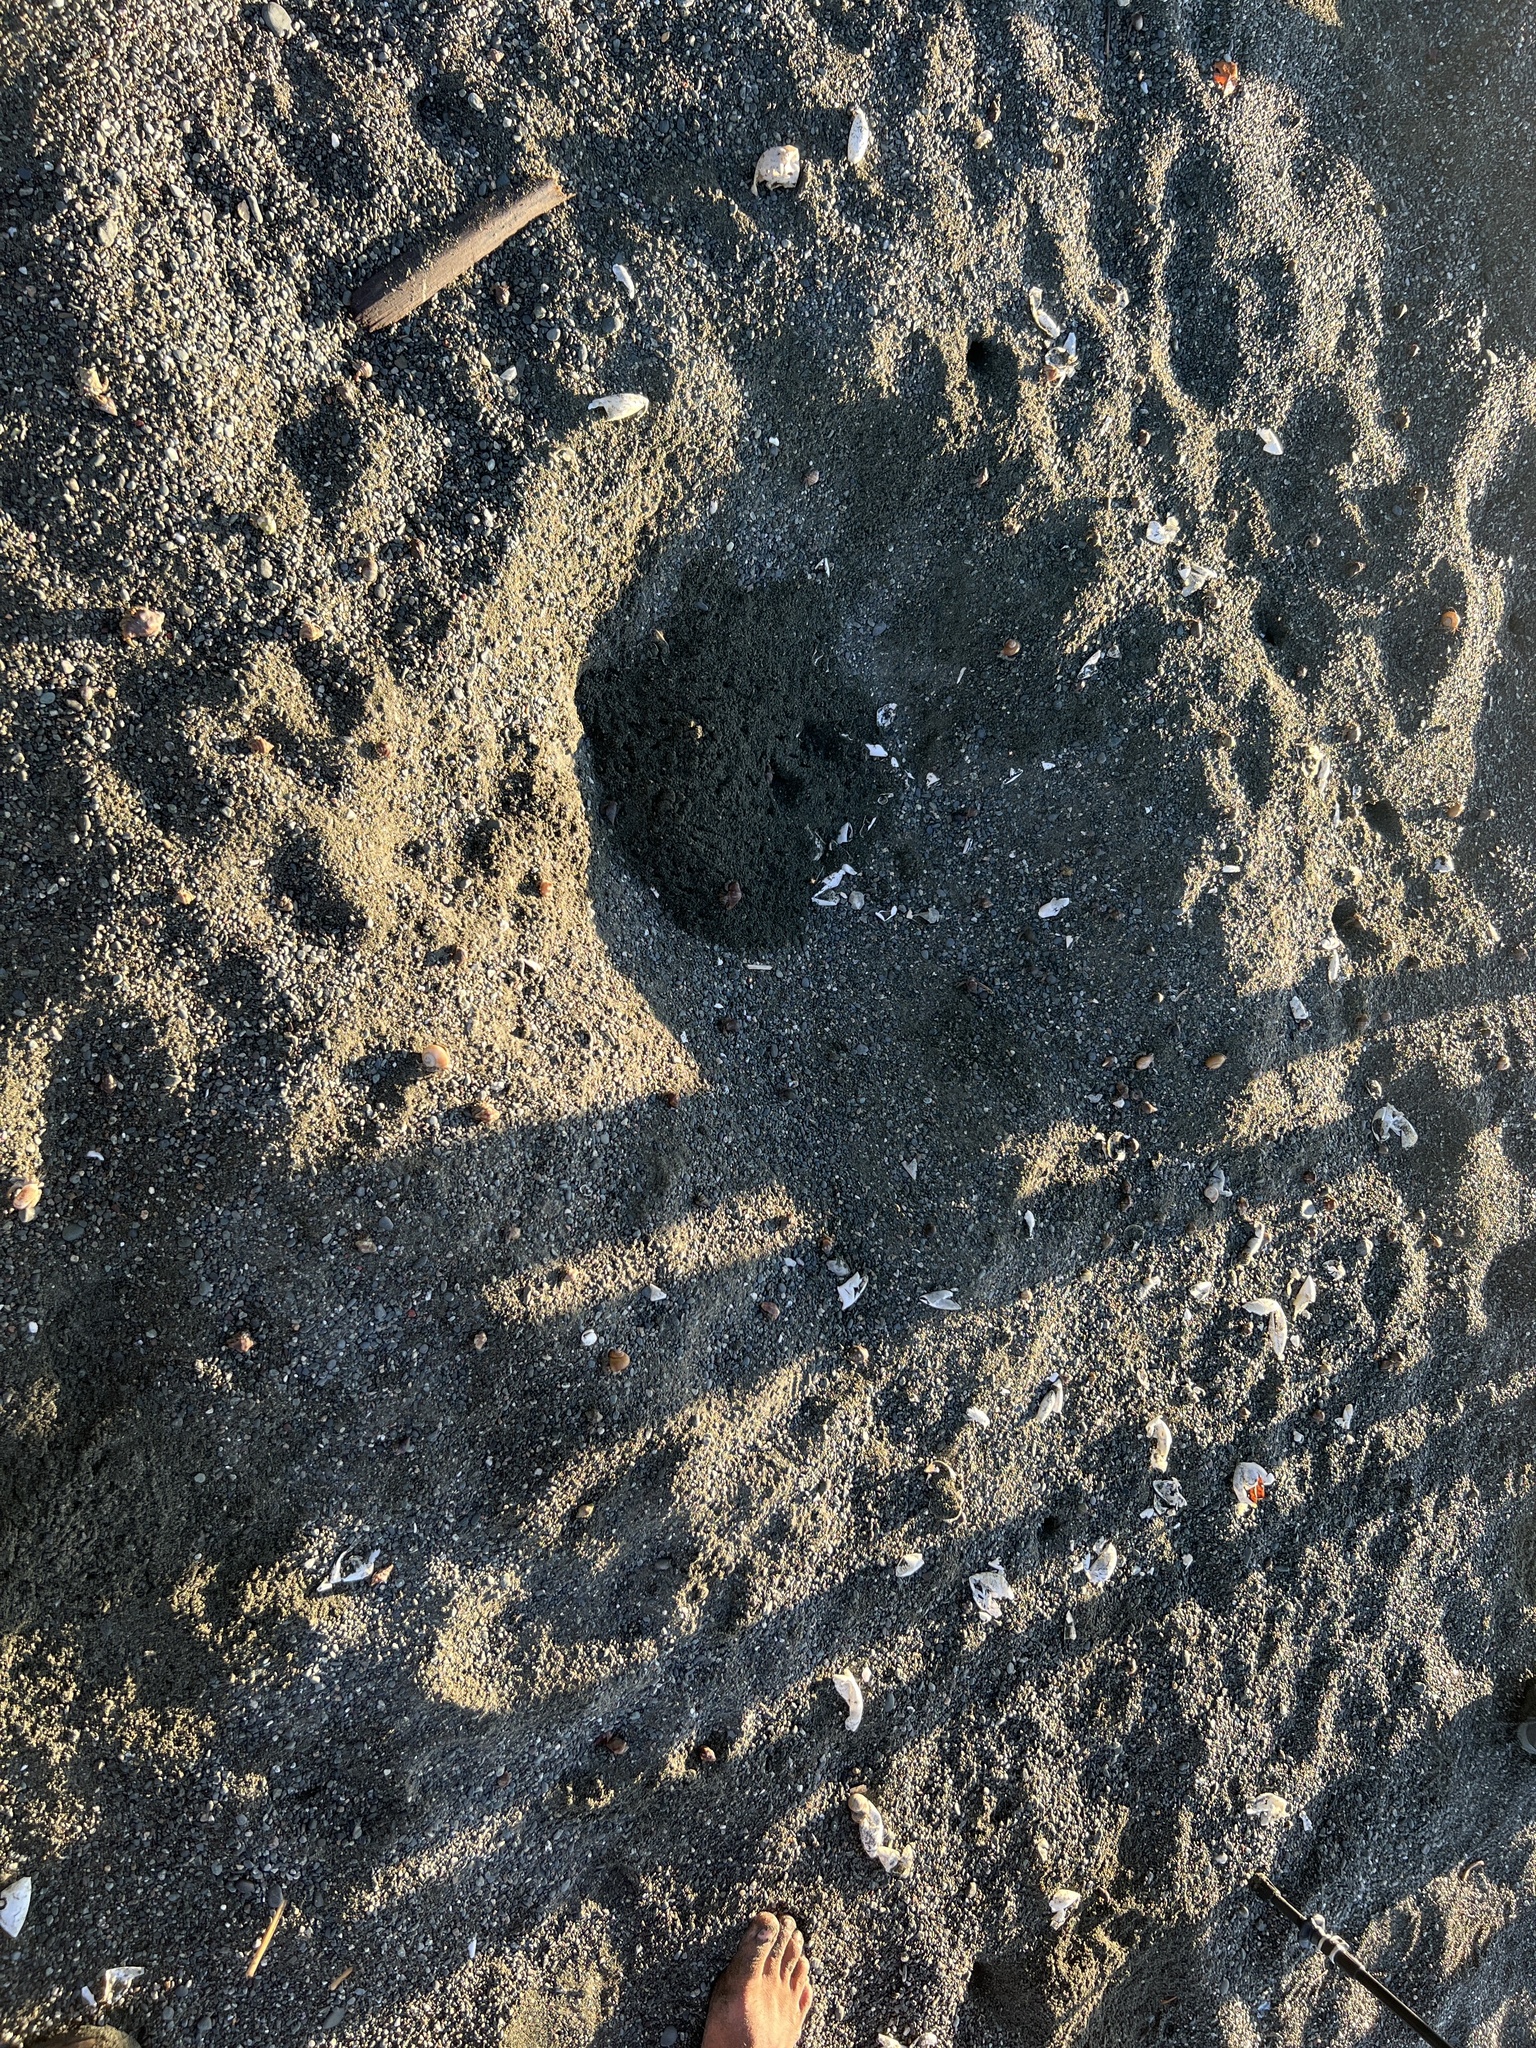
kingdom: Animalia
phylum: Chordata
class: Testudines
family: Cheloniidae
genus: Lepidochelys
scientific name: Lepidochelys olivacea
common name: Olive ridley
